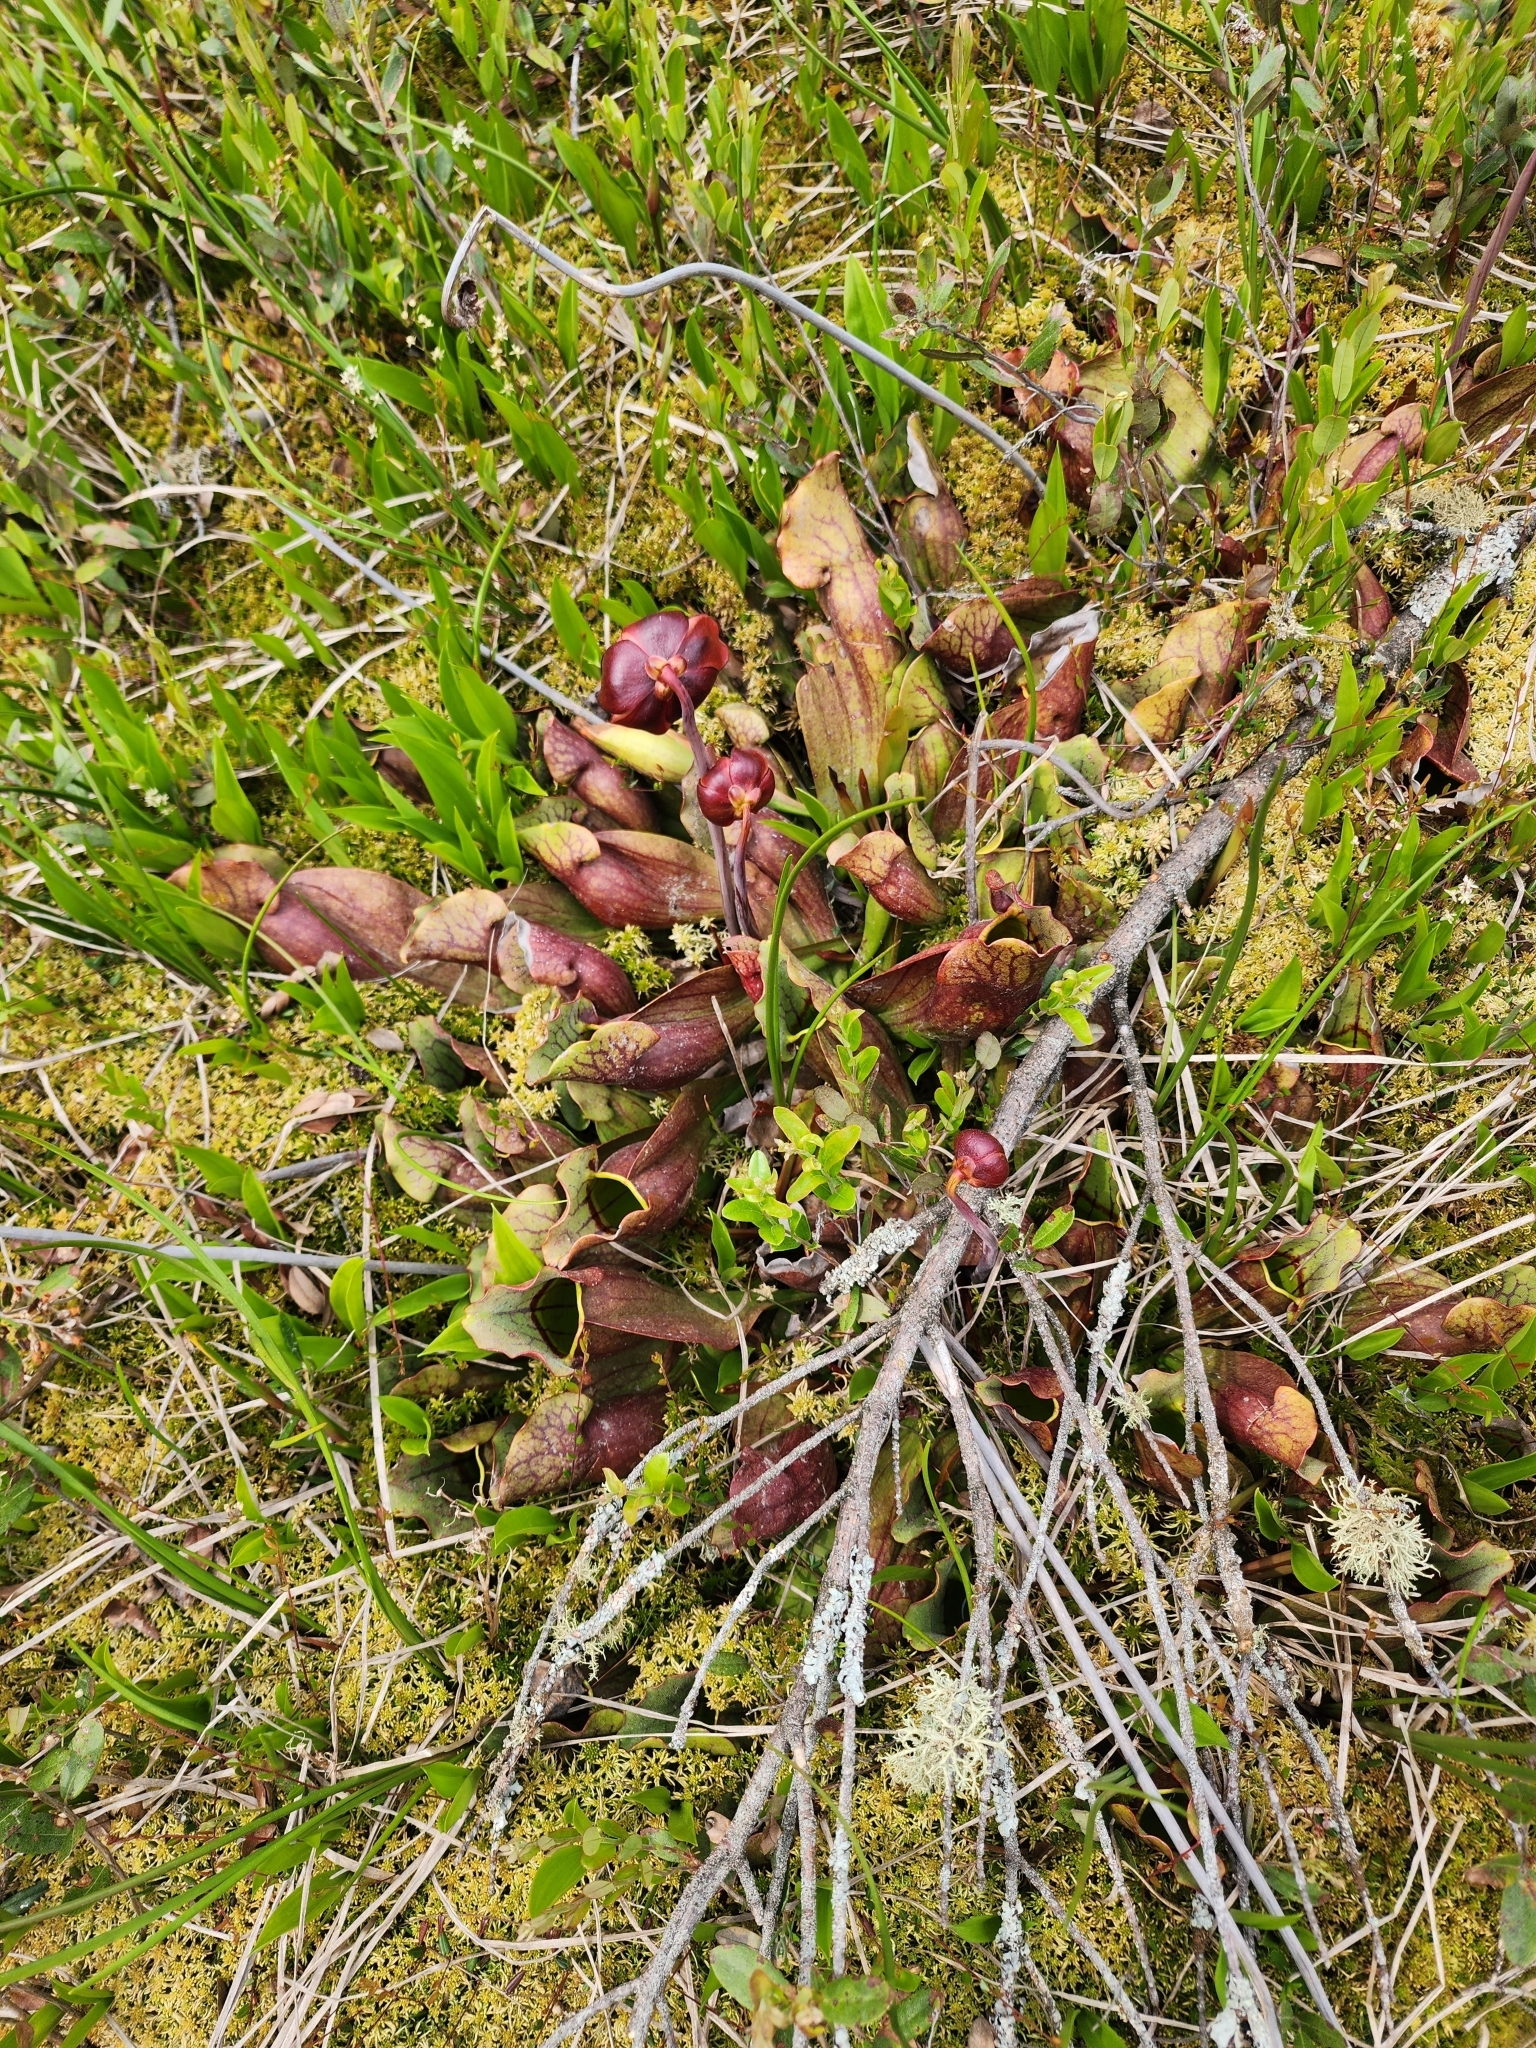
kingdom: Plantae
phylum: Tracheophyta
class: Magnoliopsida
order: Ericales
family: Sarraceniaceae
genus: Sarracenia
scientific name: Sarracenia purpurea
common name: Pitcherplant
